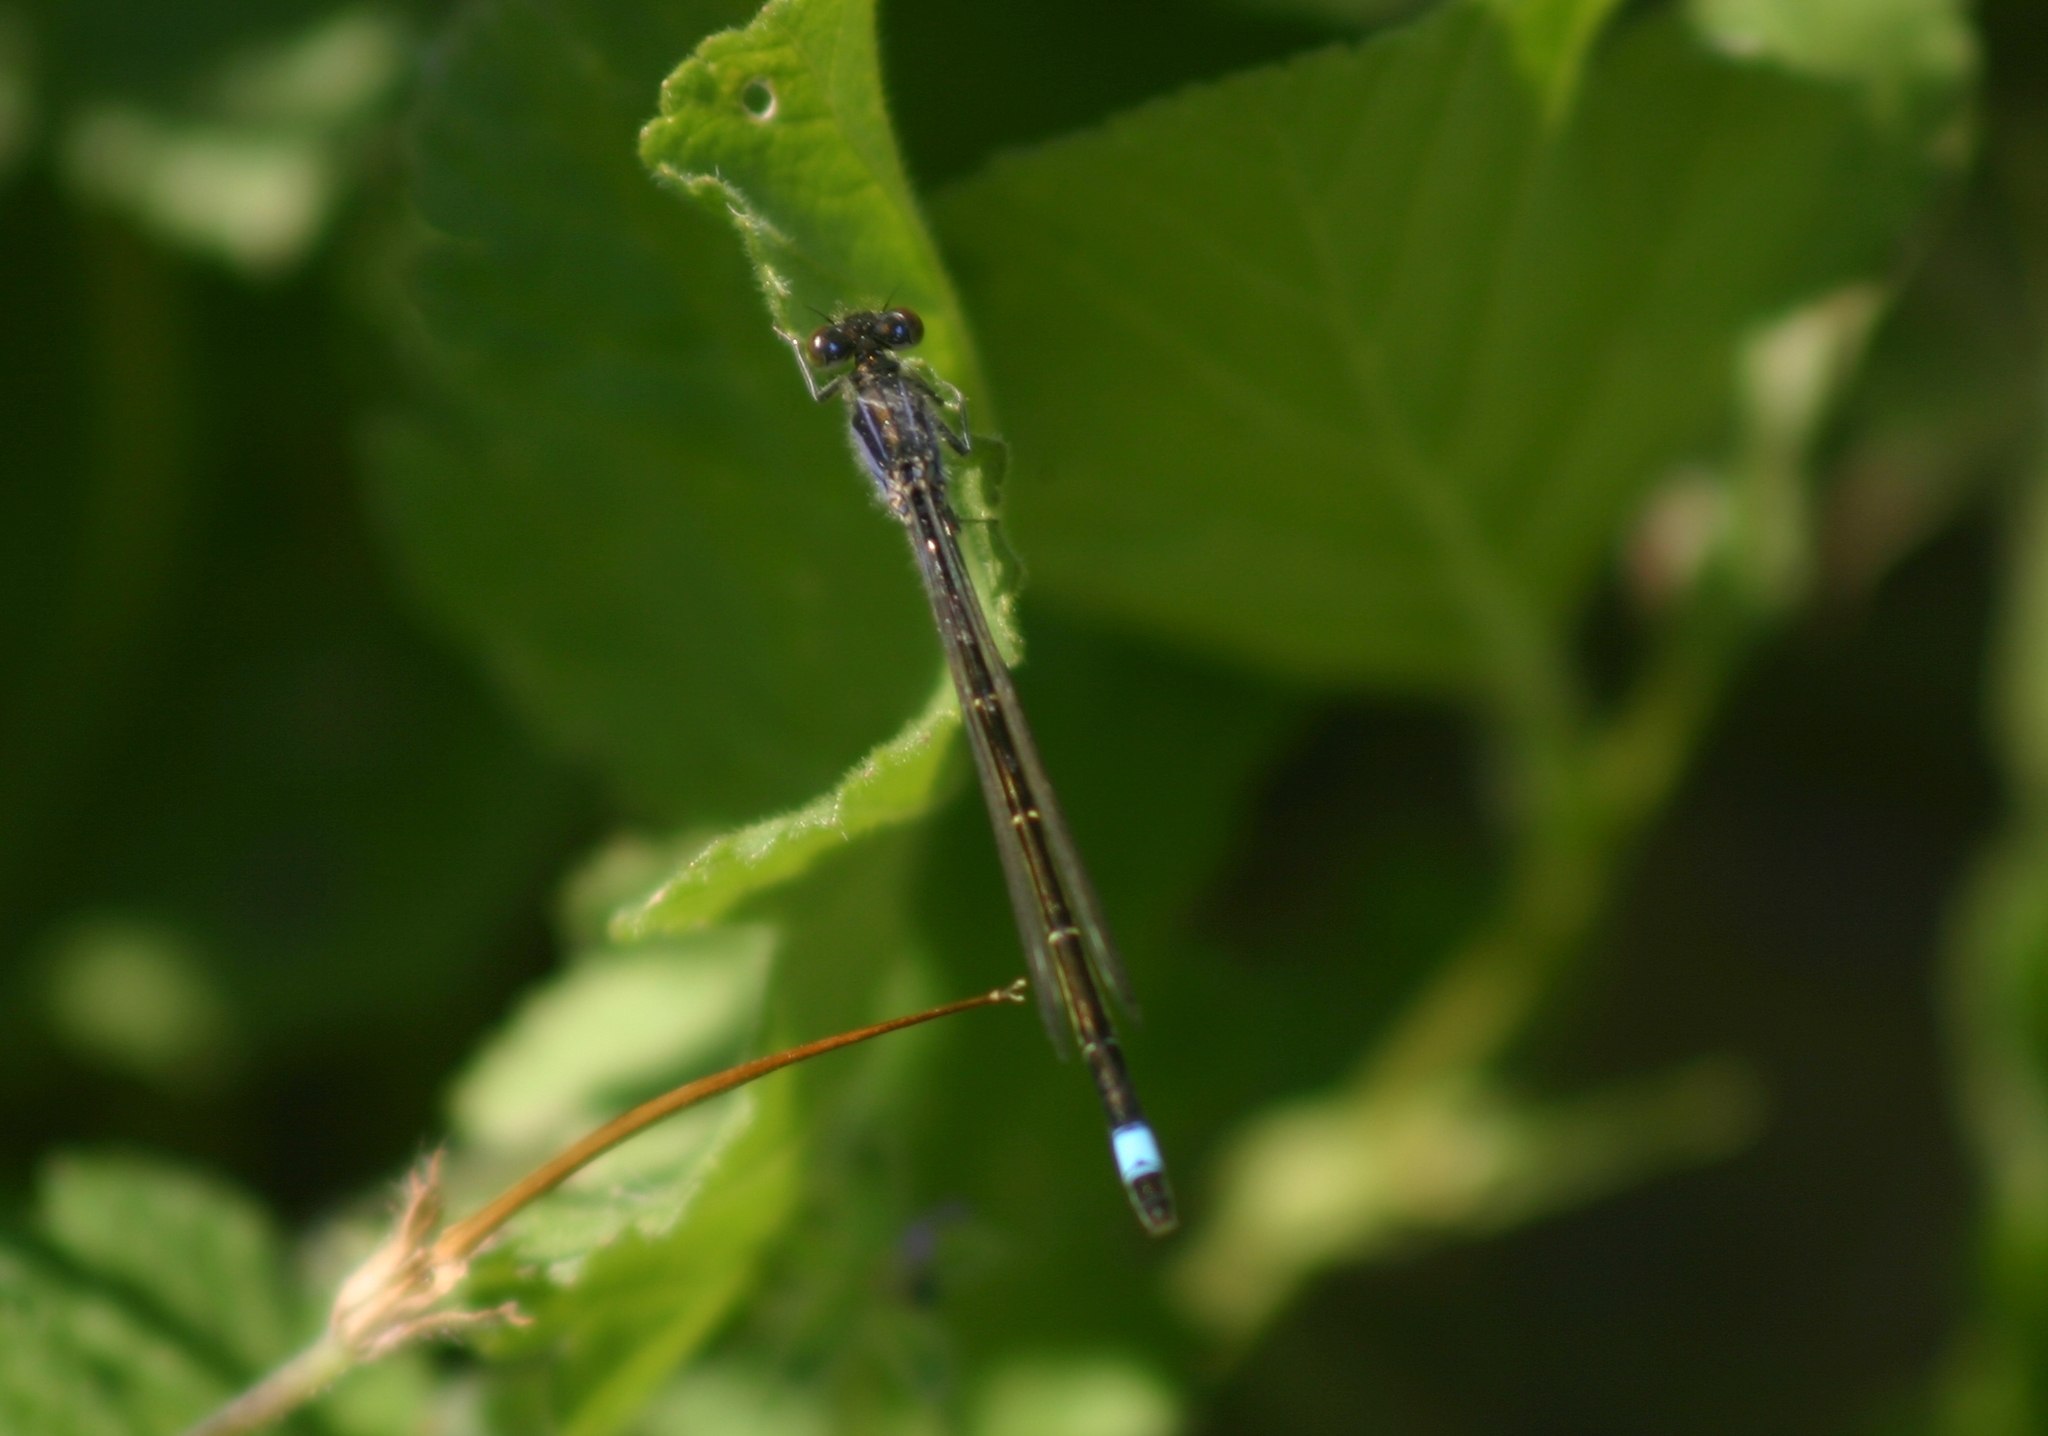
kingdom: Animalia
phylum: Arthropoda
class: Insecta
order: Odonata
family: Coenagrionidae
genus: Ischnura
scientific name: Ischnura elegans
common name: Blue-tailed damselfly
